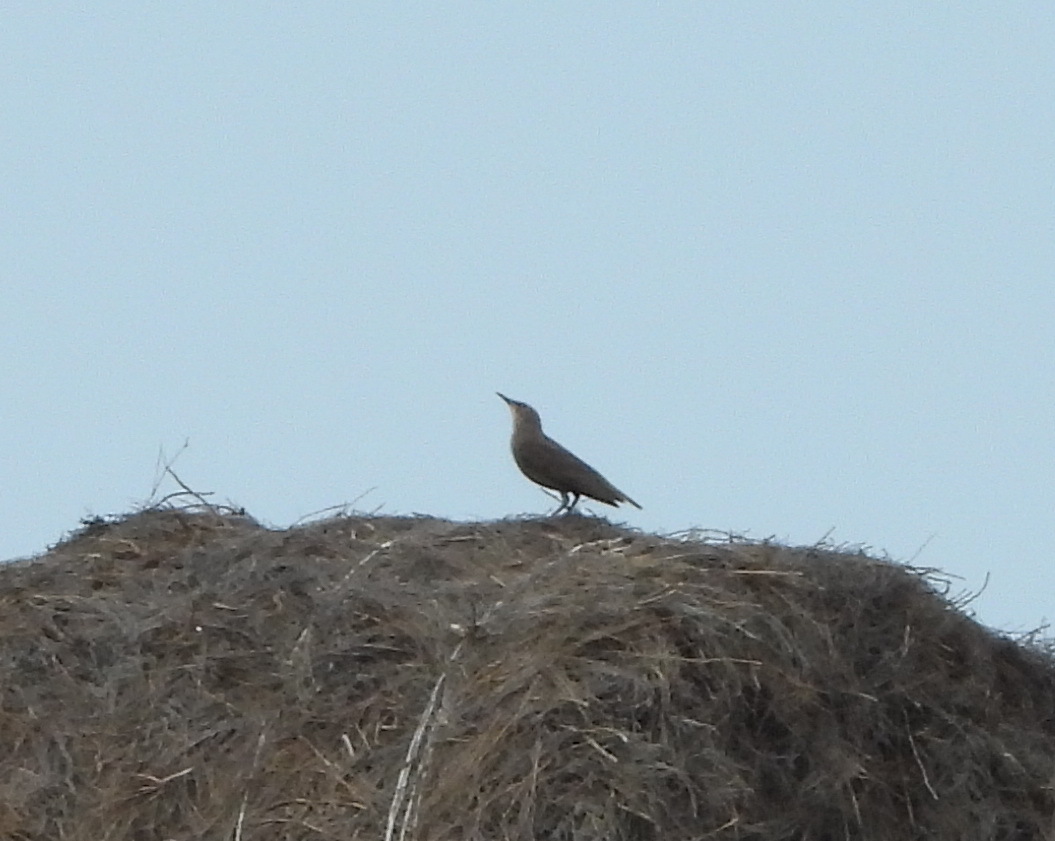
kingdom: Animalia
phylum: Chordata
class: Aves
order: Passeriformes
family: Sturnidae
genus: Sturnus
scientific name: Sturnus vulgaris
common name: Common starling
